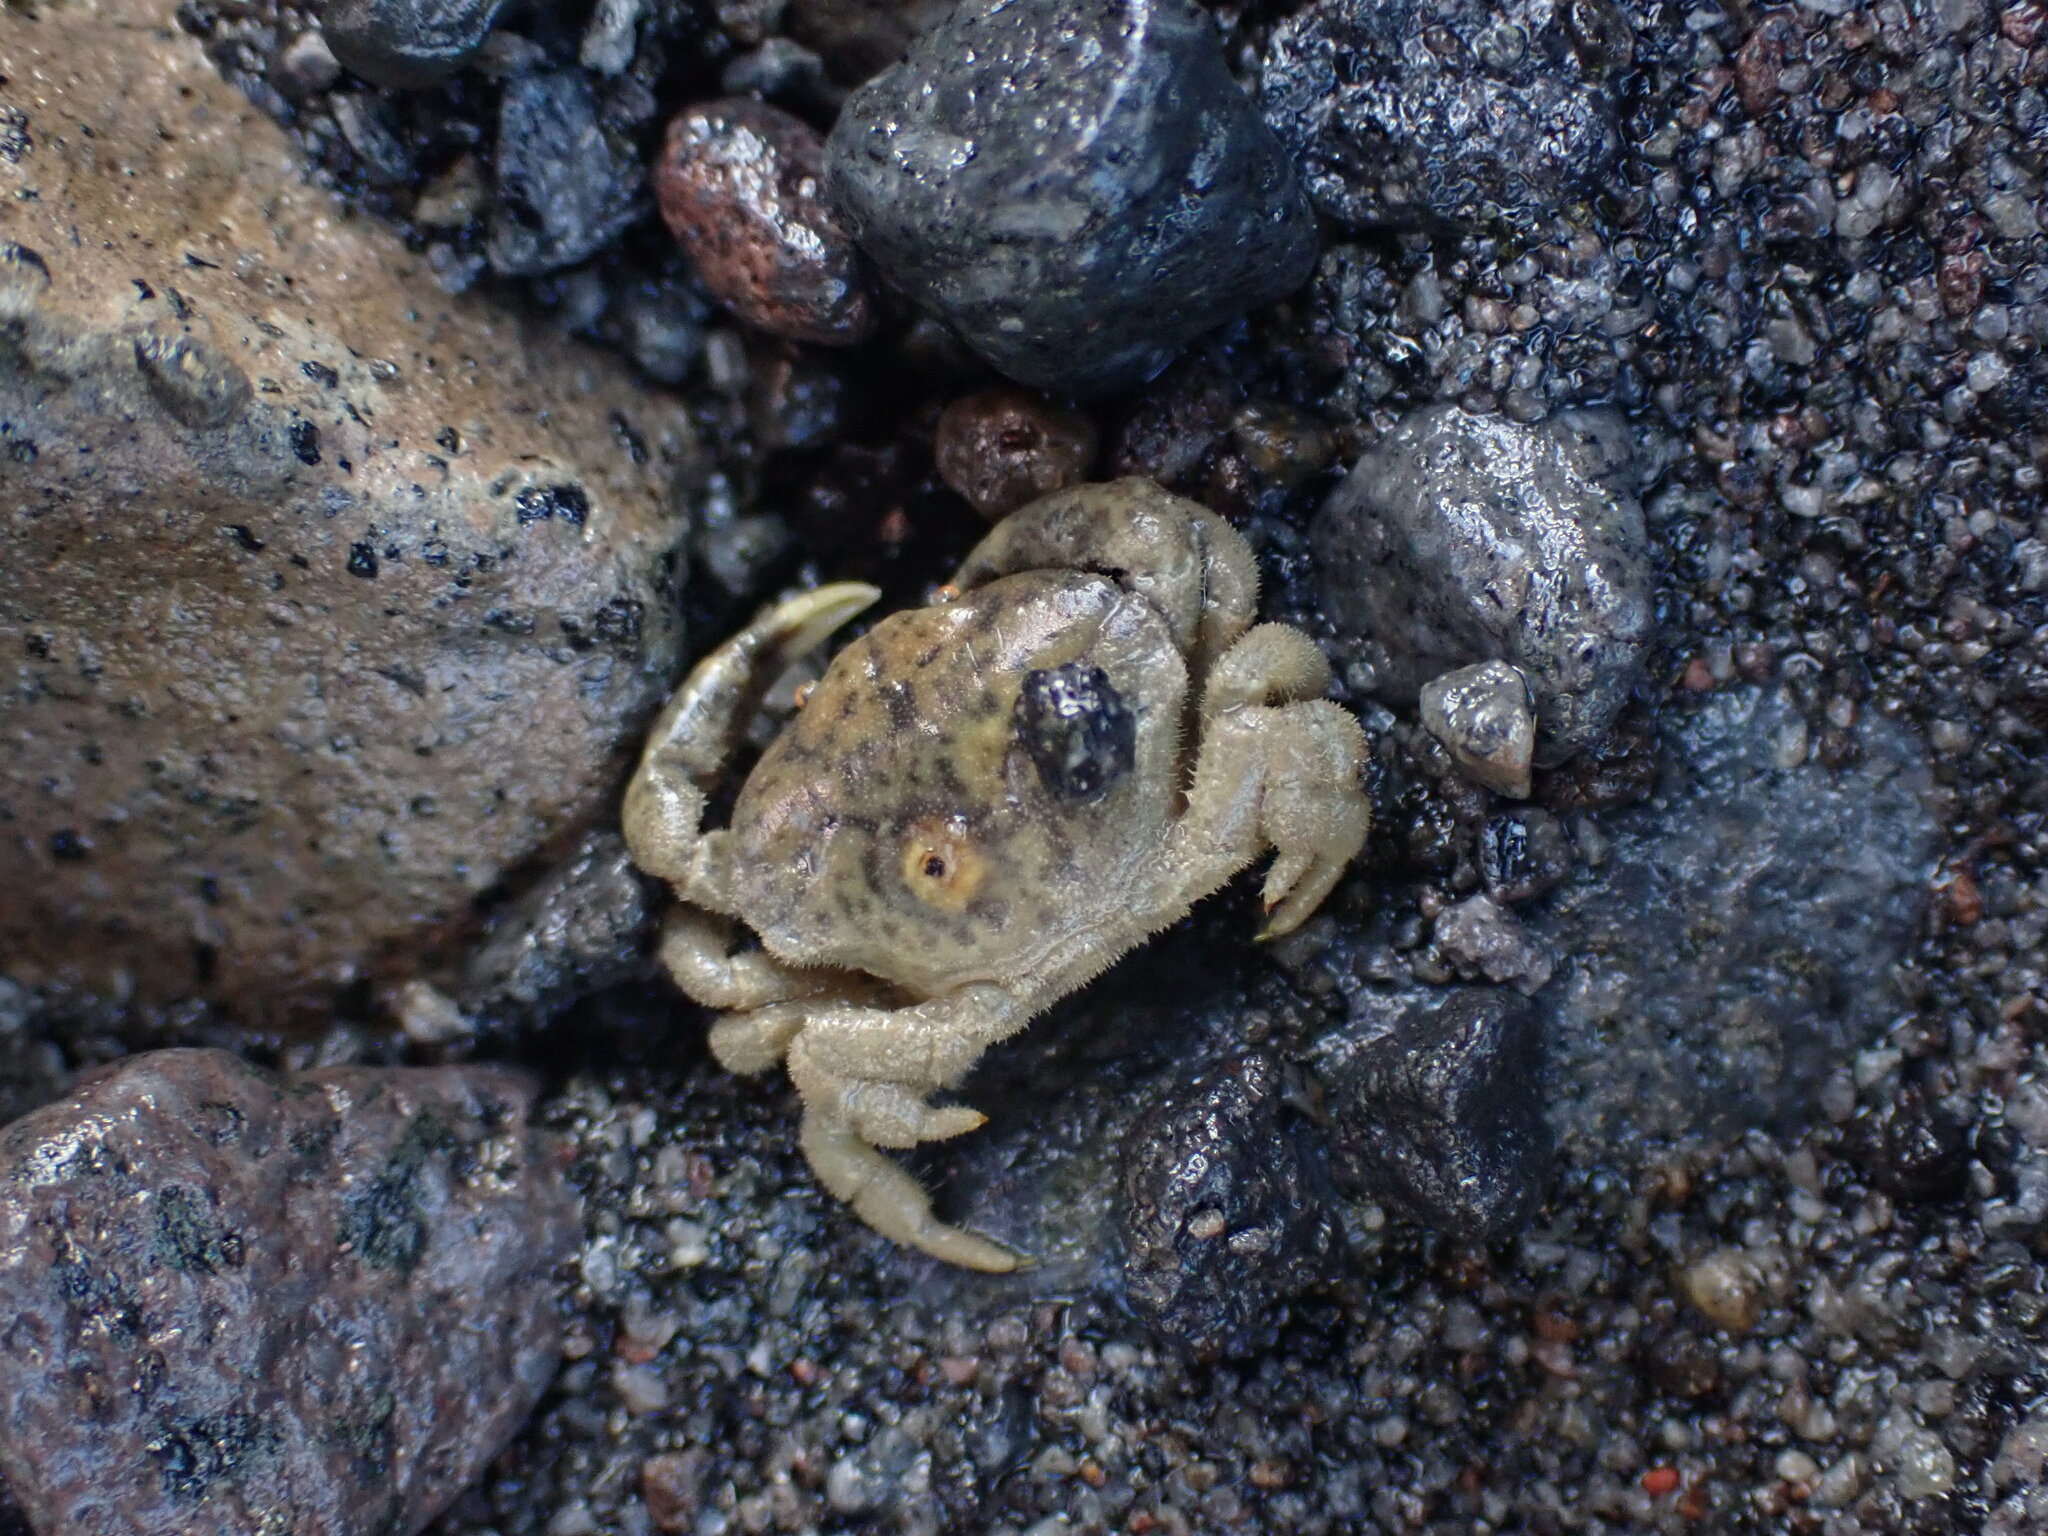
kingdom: Animalia
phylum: Arthropoda
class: Malacostraca
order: Decapoda
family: Heteroziidae
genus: Heterozius
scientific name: Heterozius rotundifrons
